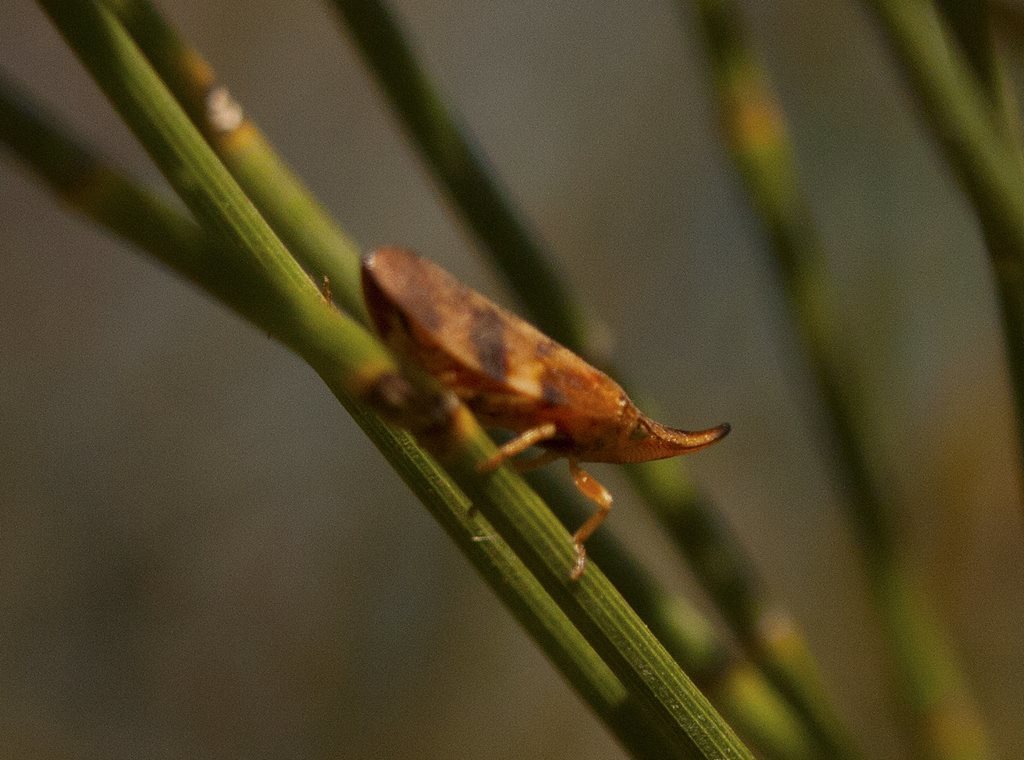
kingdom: Animalia
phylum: Arthropoda
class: Insecta
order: Hemiptera
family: Aphrophoridae
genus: Philagra
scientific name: Philagra parva
